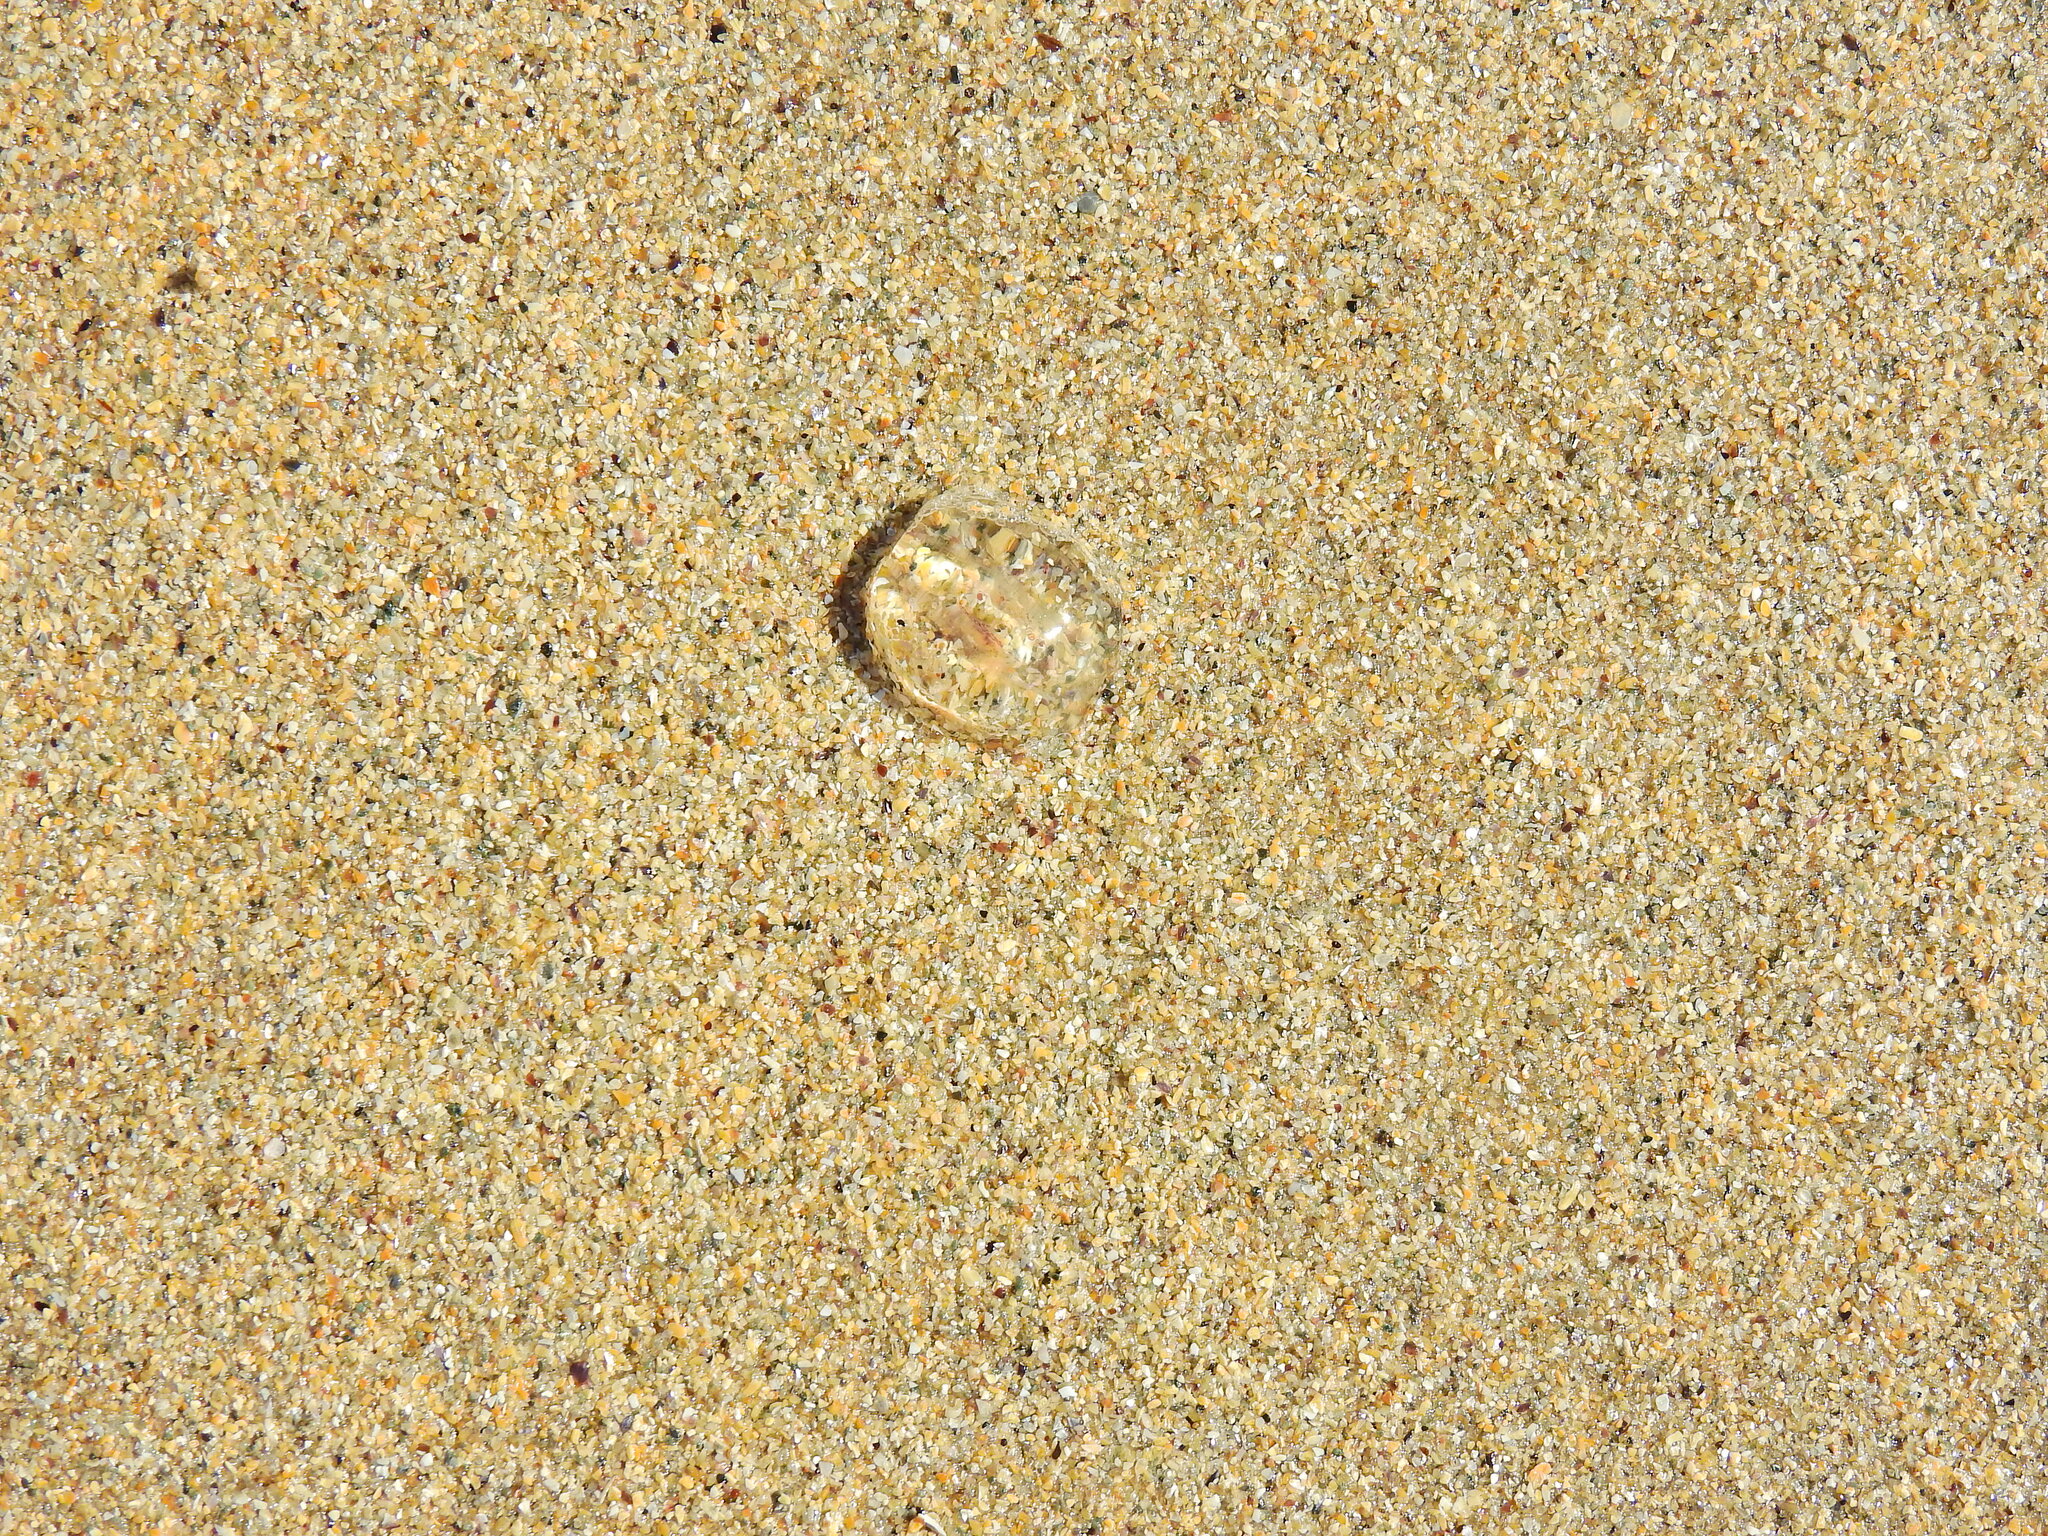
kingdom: Animalia
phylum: Ctenophora
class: Tentaculata
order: Cydippida
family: Pleurobrachiidae
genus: Pleurobrachia
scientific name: Pleurobrachia pileus
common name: Sea gooseberry
